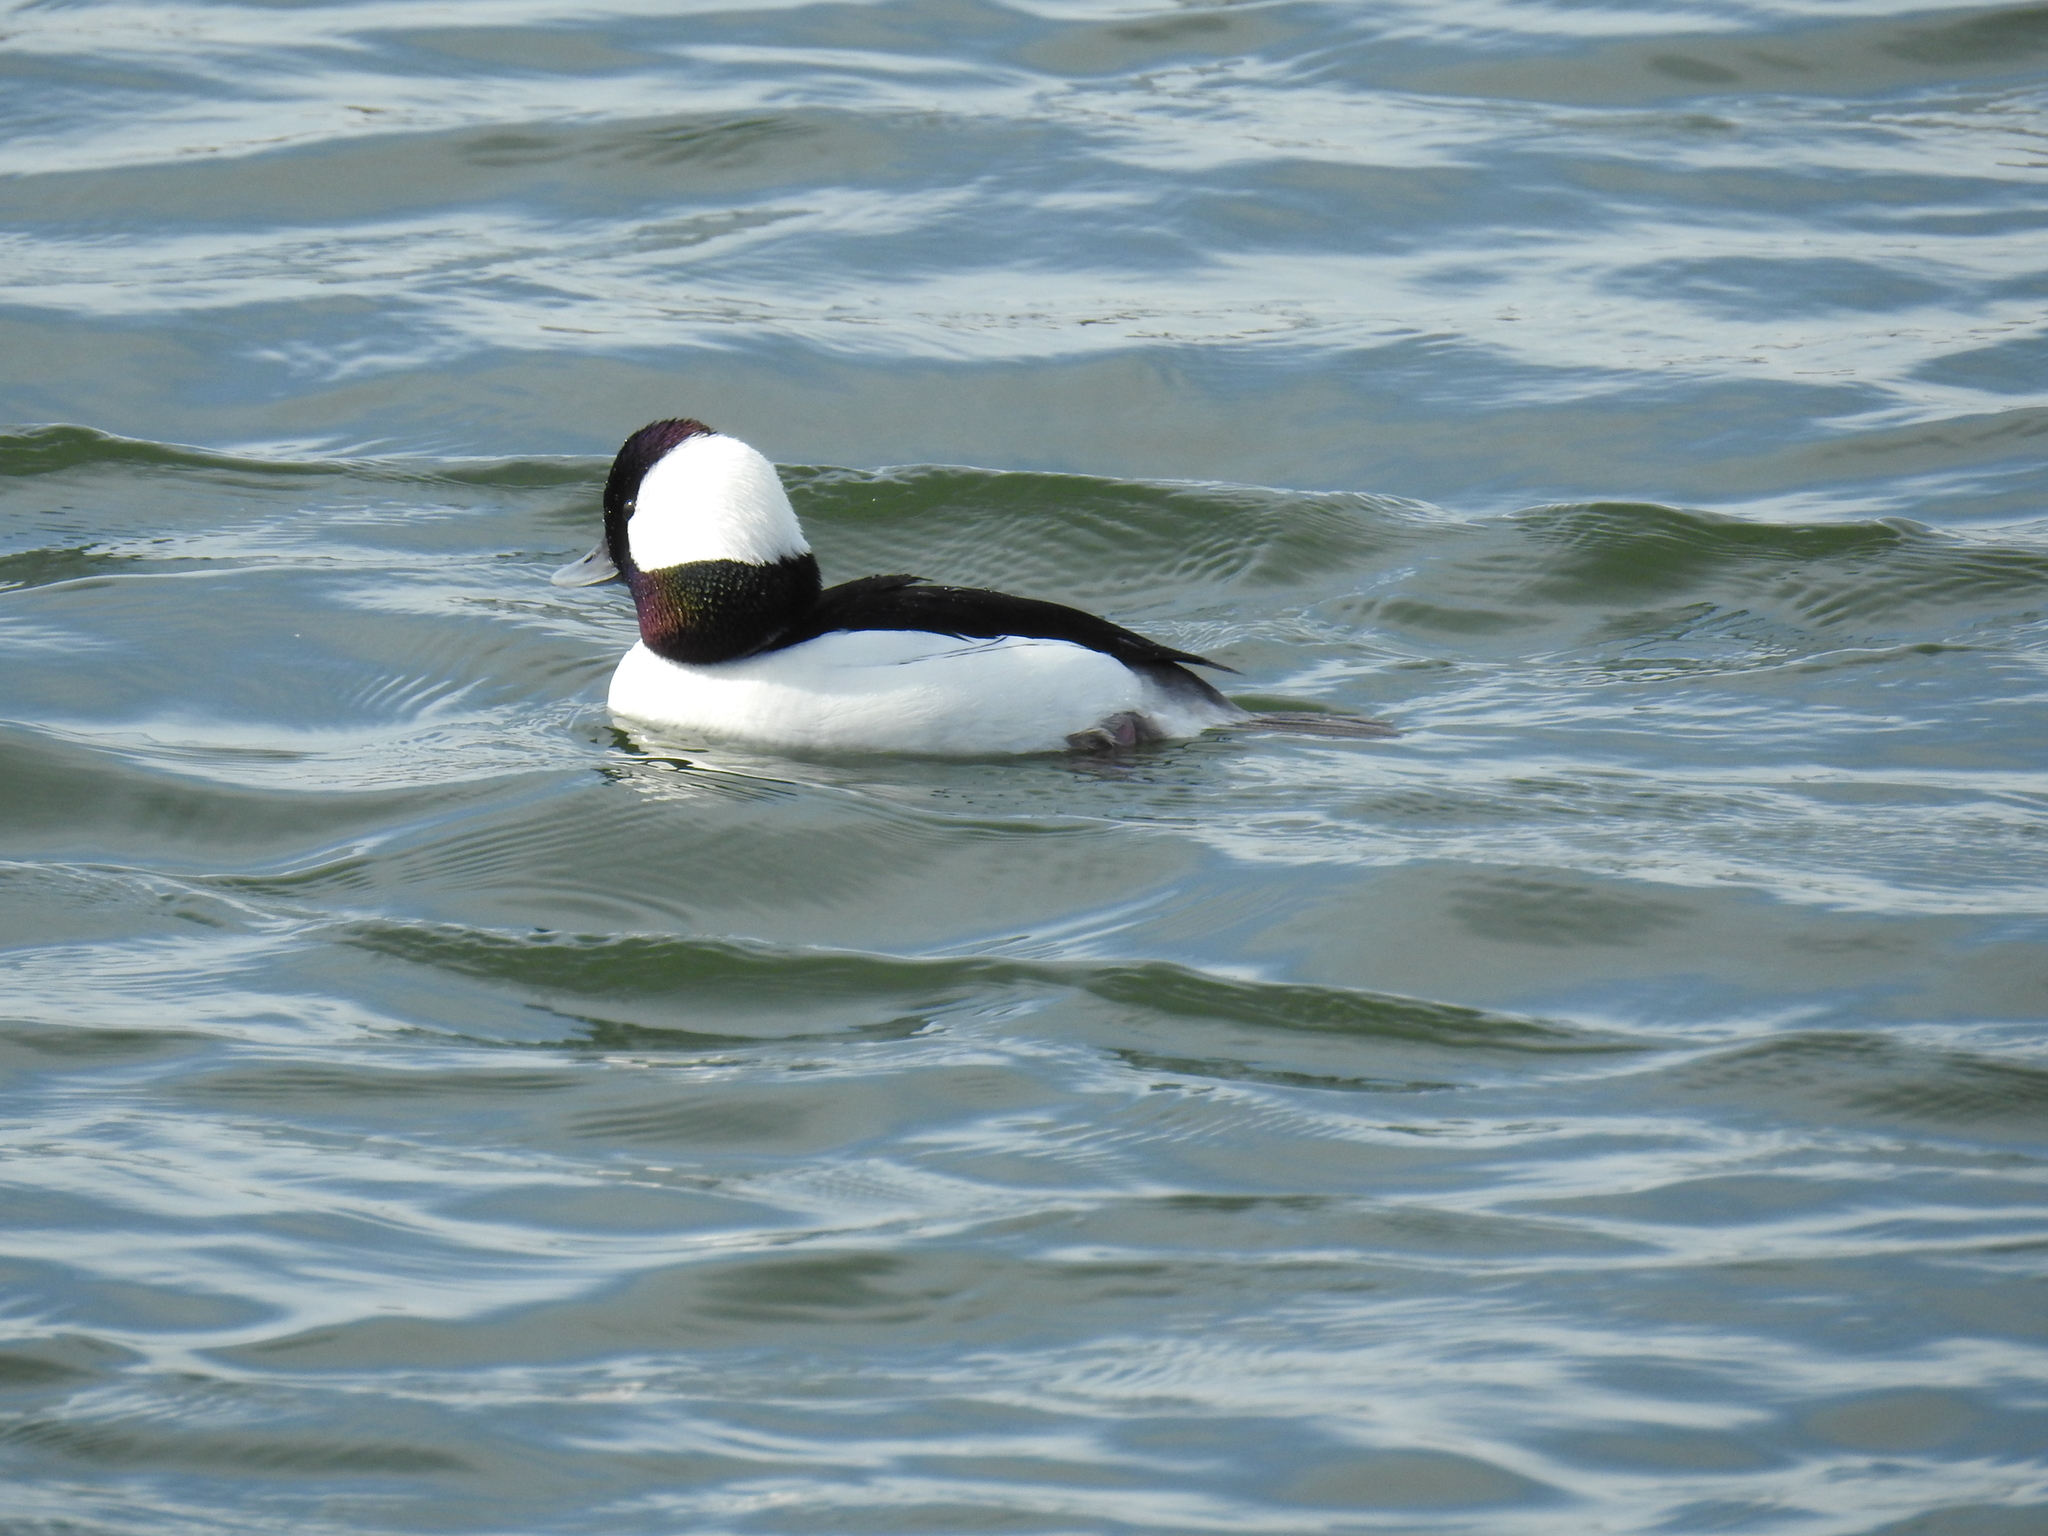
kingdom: Animalia
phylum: Chordata
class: Aves
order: Anseriformes
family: Anatidae
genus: Bucephala
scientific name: Bucephala albeola
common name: Bufflehead
